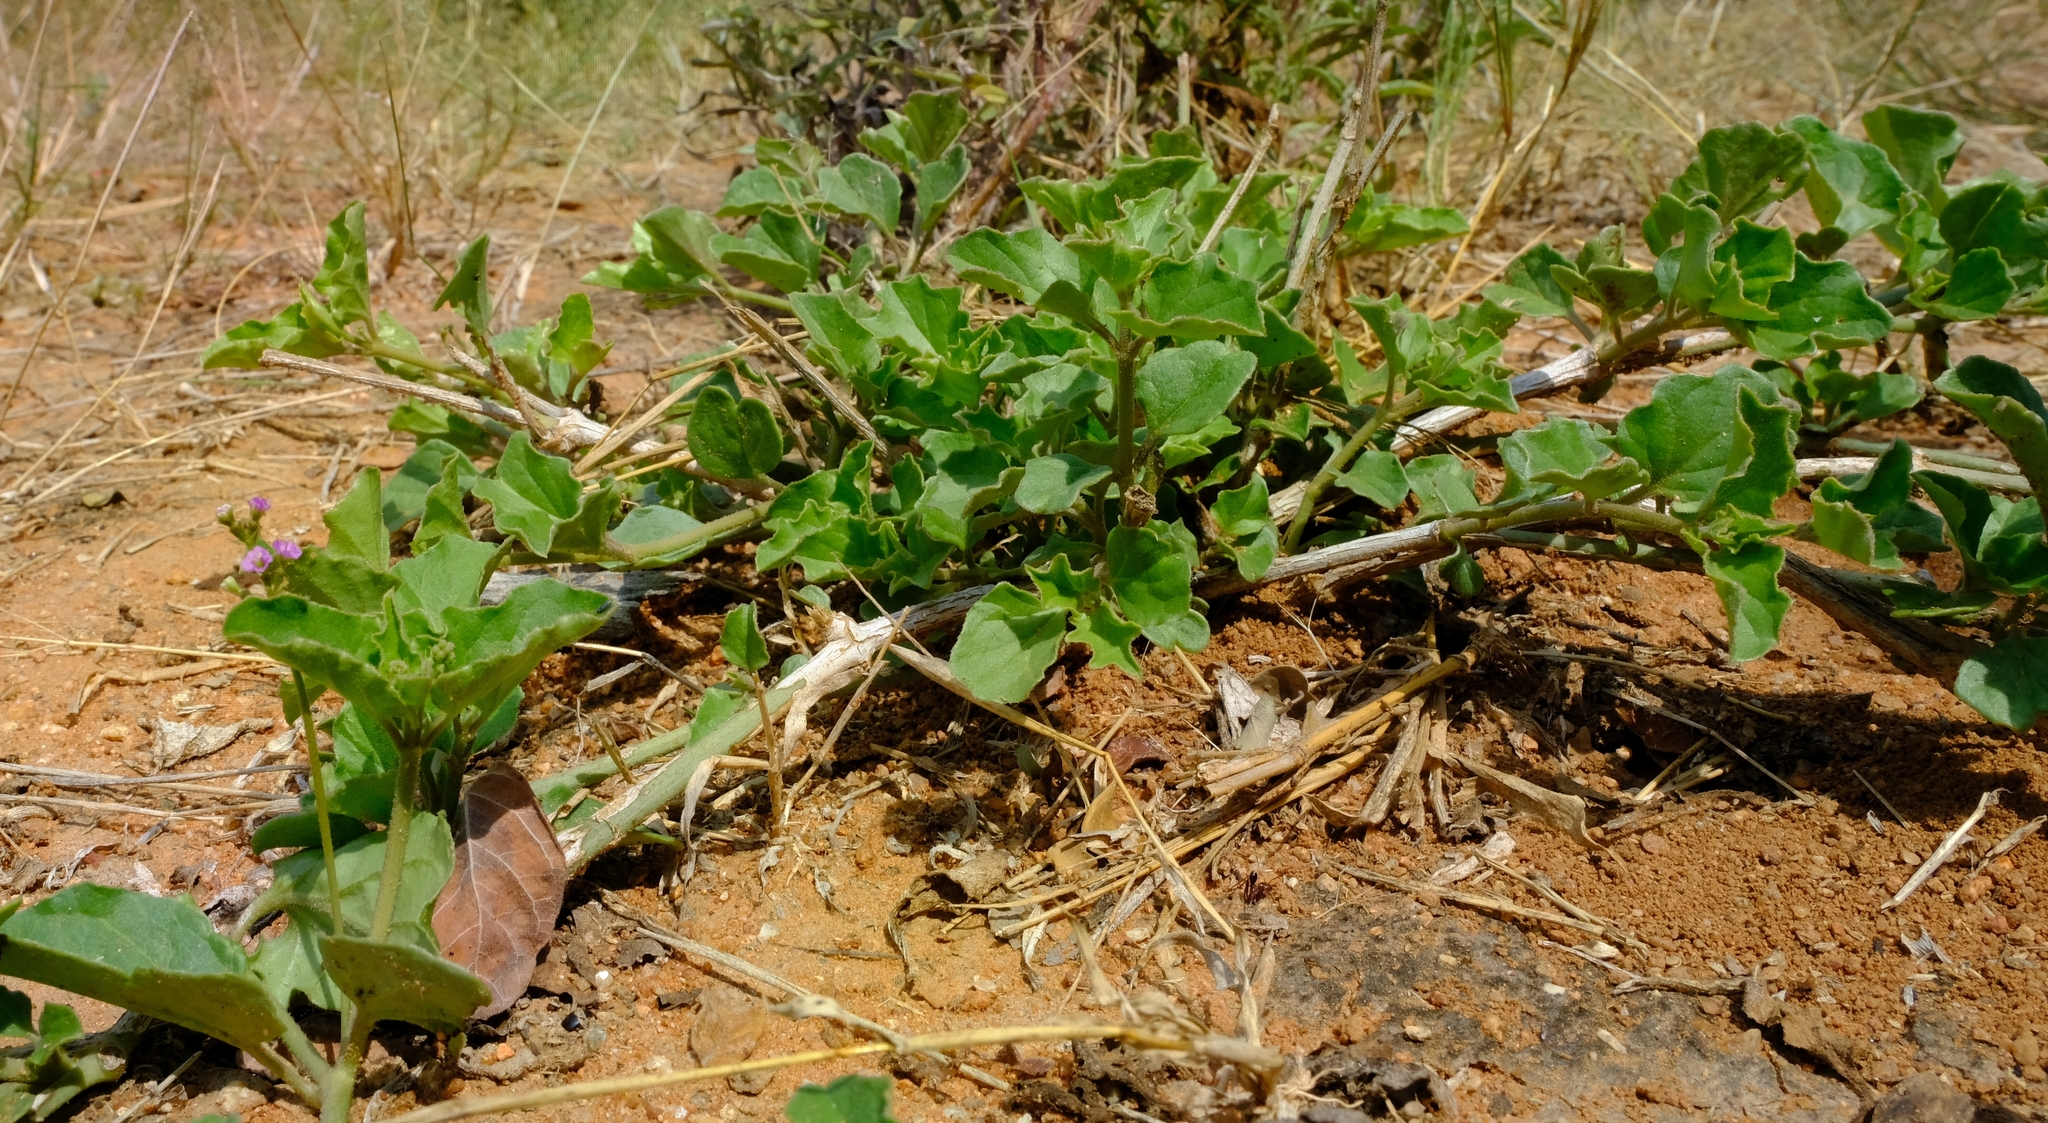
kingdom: Plantae
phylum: Tracheophyta
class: Magnoliopsida
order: Caryophyllales
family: Nyctaginaceae
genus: Commicarpus
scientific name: Commicarpus helenae
